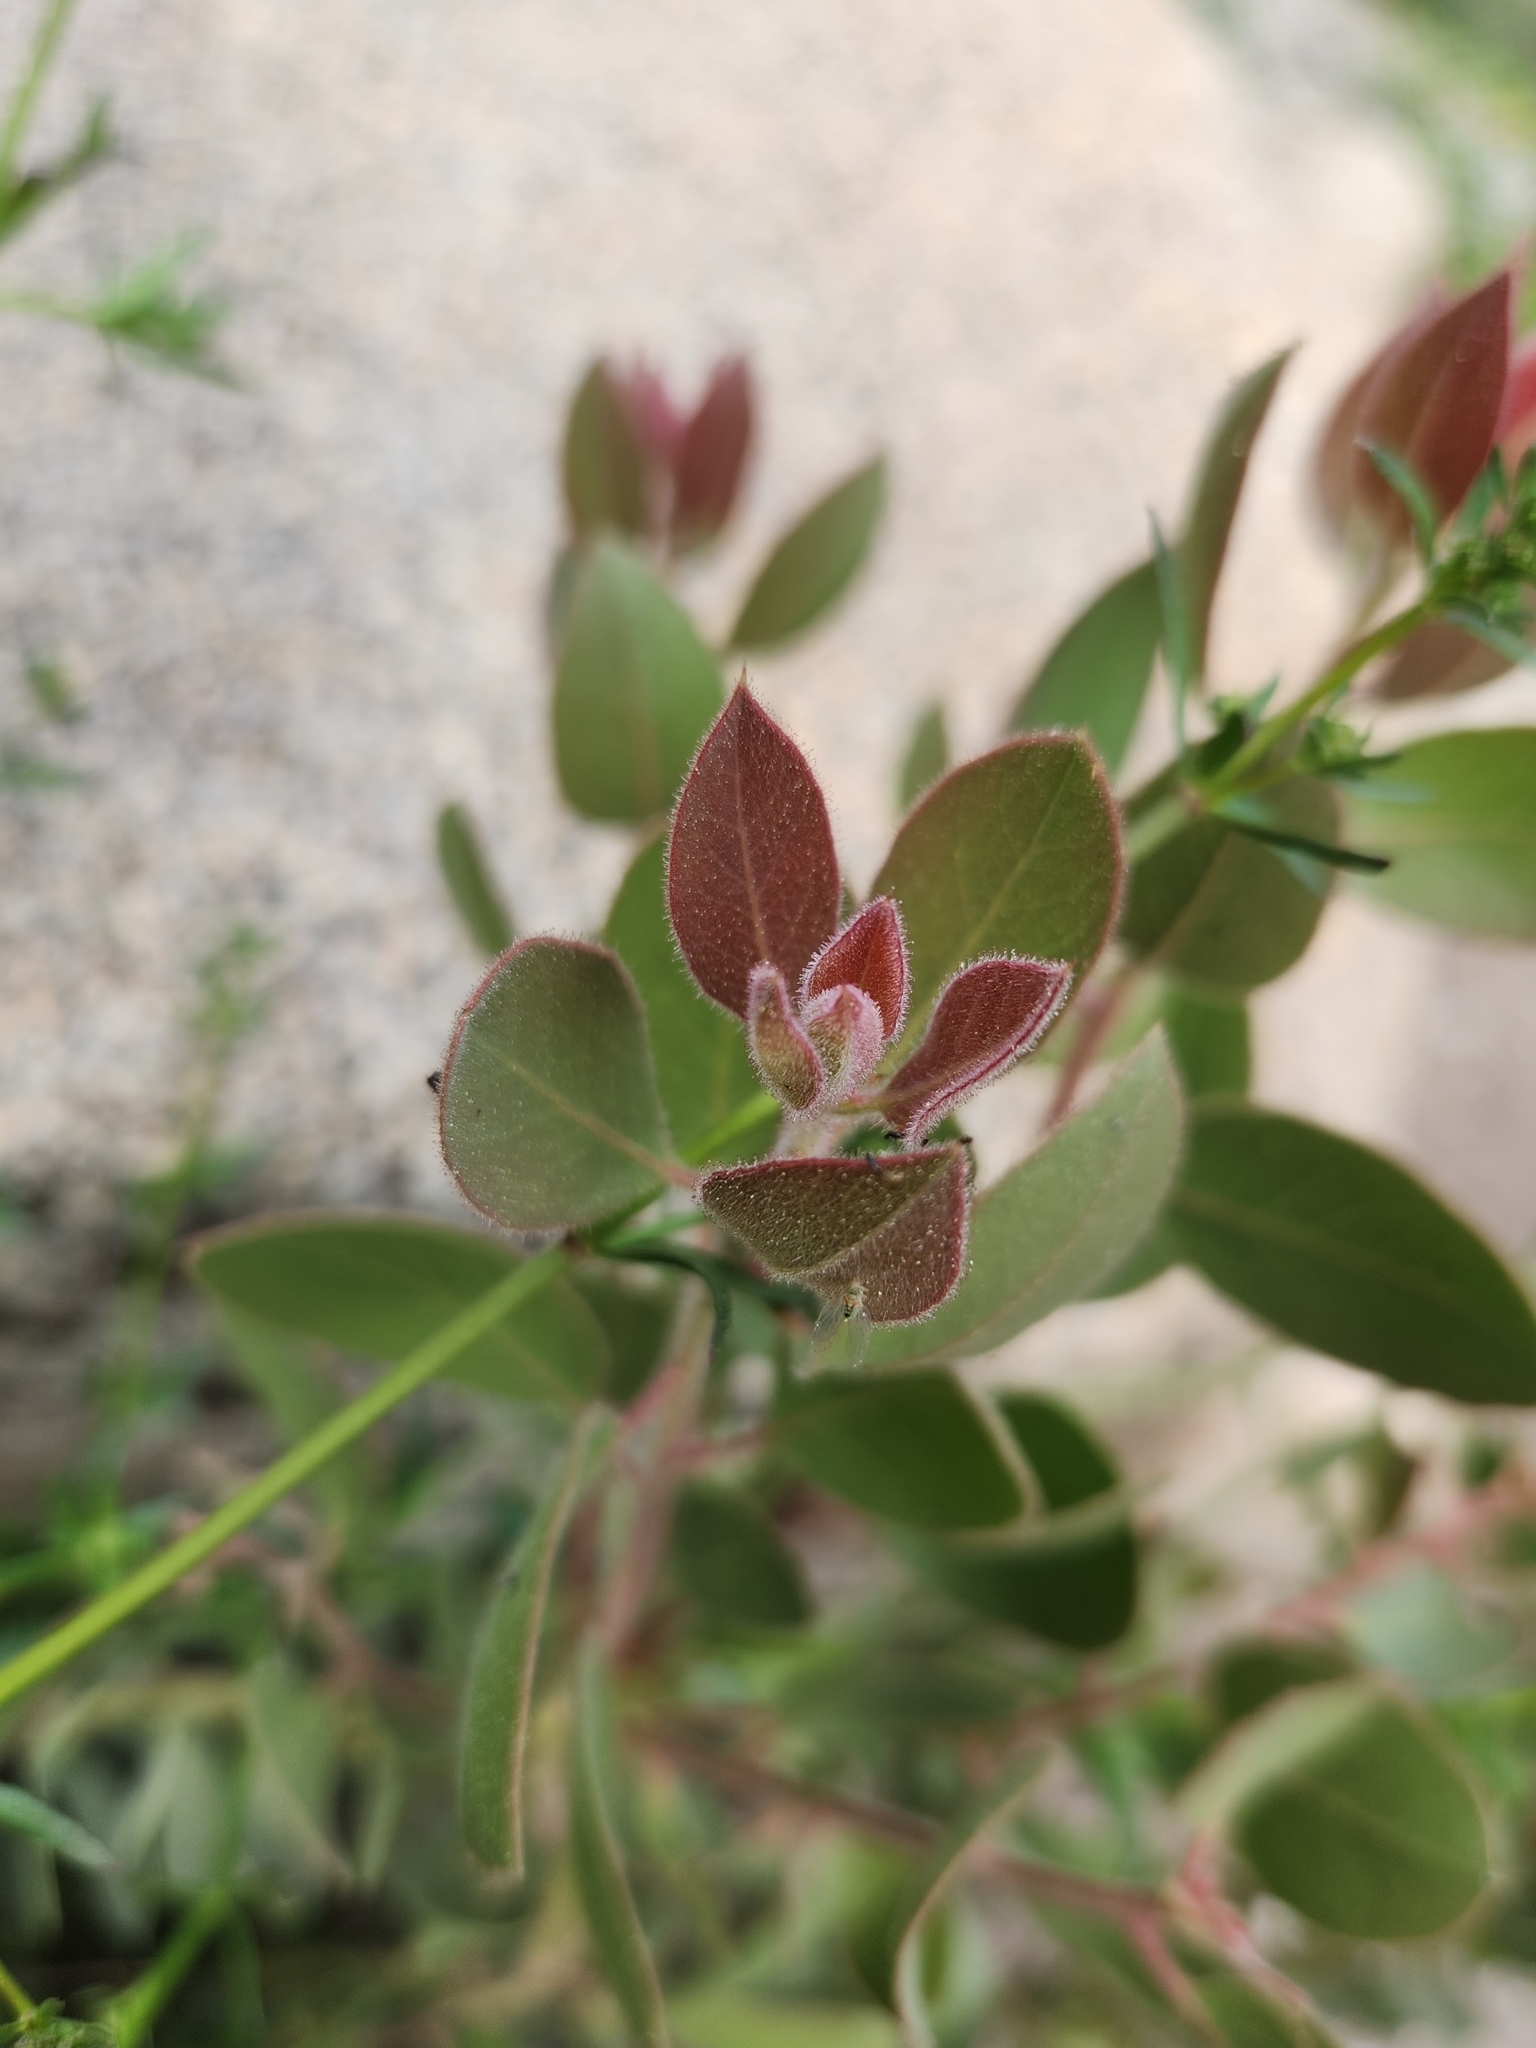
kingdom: Plantae
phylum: Tracheophyta
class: Magnoliopsida
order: Ericales
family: Ericaceae
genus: Arctostaphylos
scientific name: Arctostaphylos pringlei
